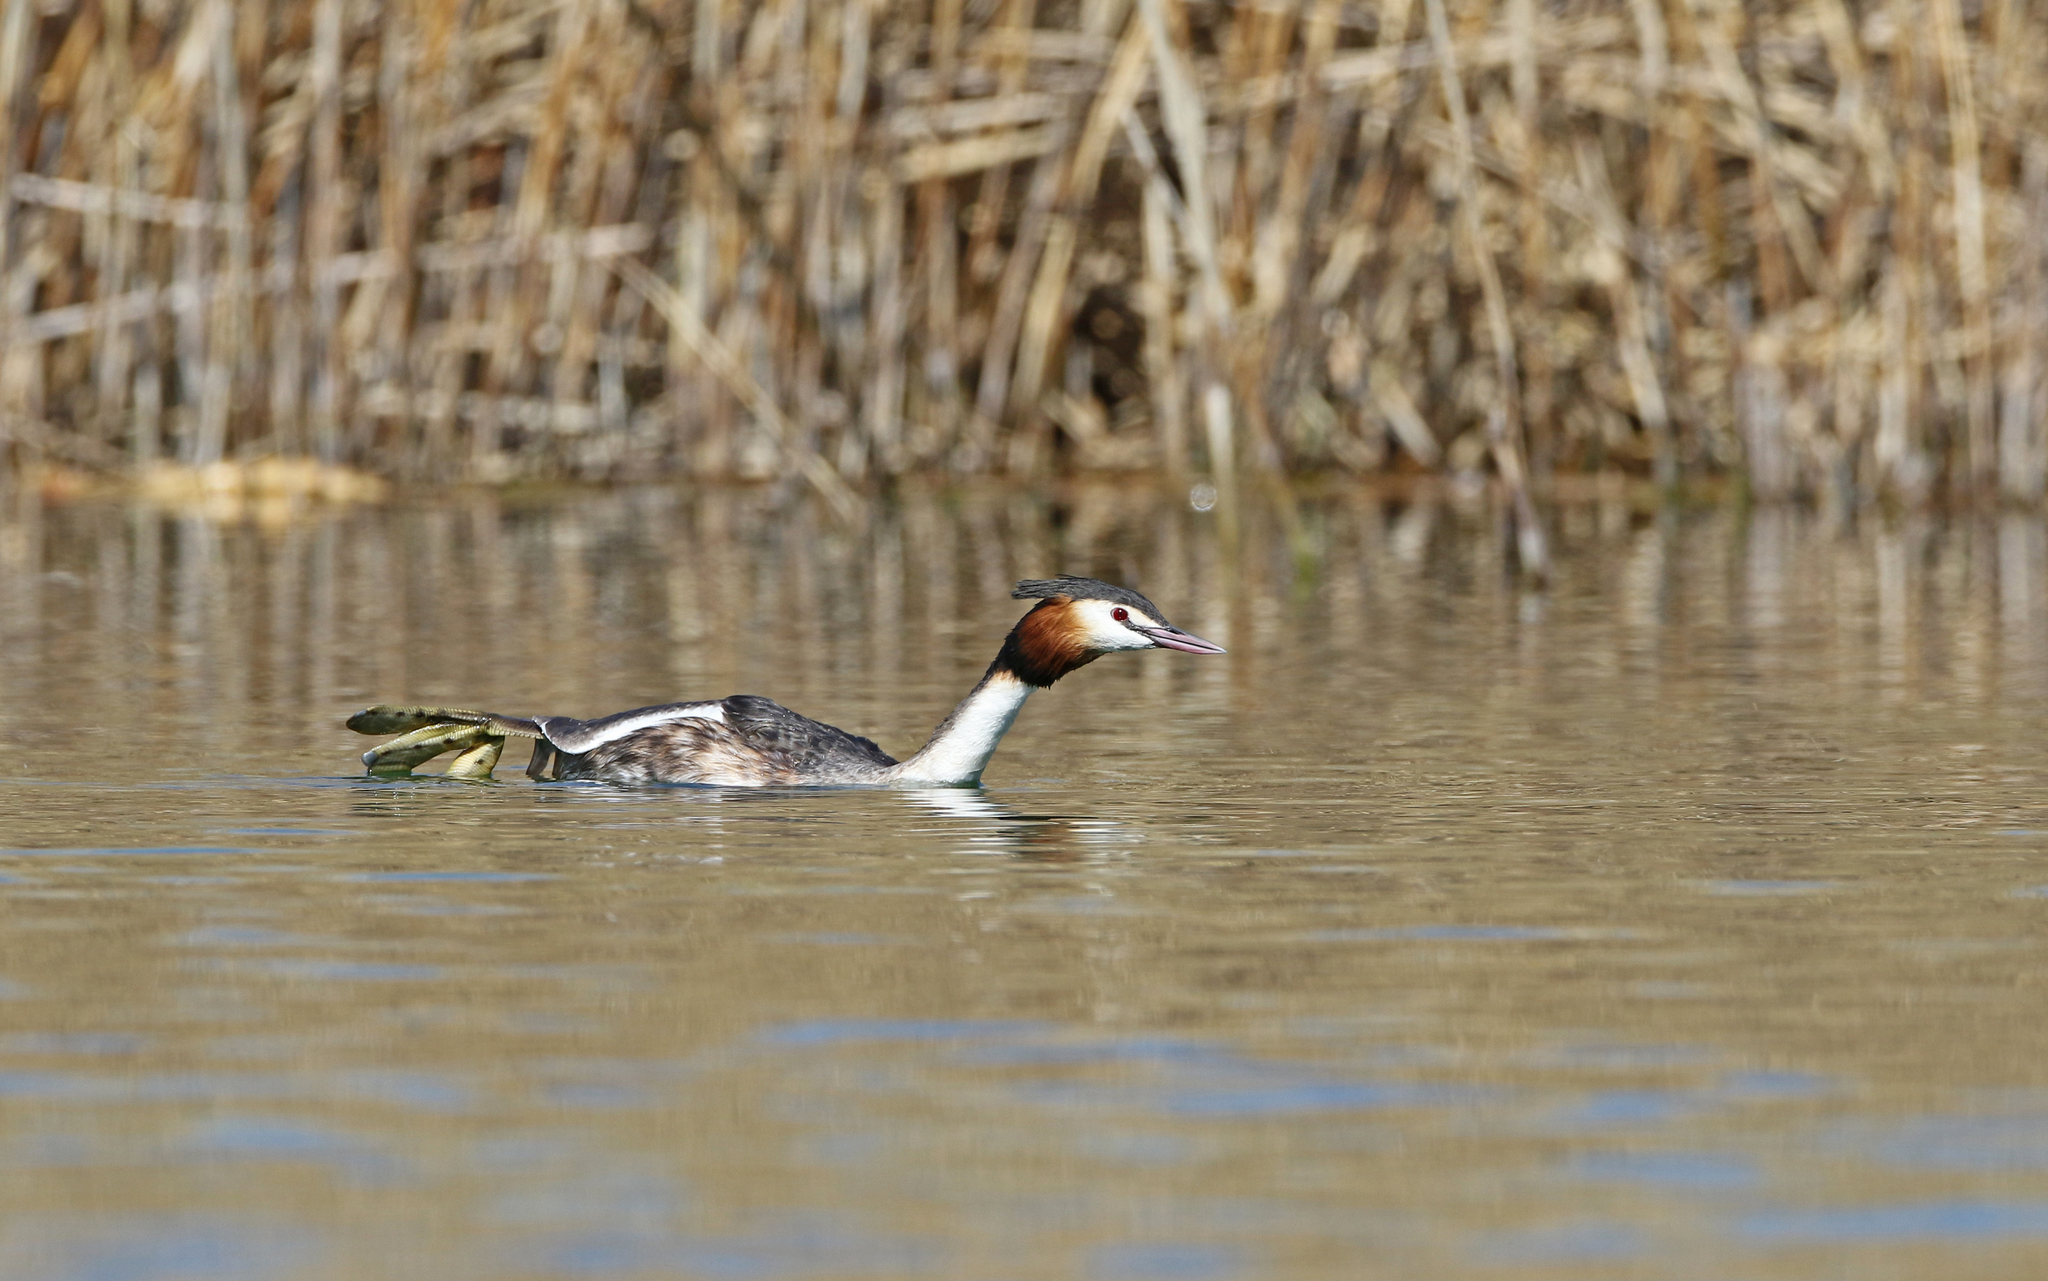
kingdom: Animalia
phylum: Chordata
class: Aves
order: Podicipediformes
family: Podicipedidae
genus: Podiceps
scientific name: Podiceps cristatus
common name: Great crested grebe
